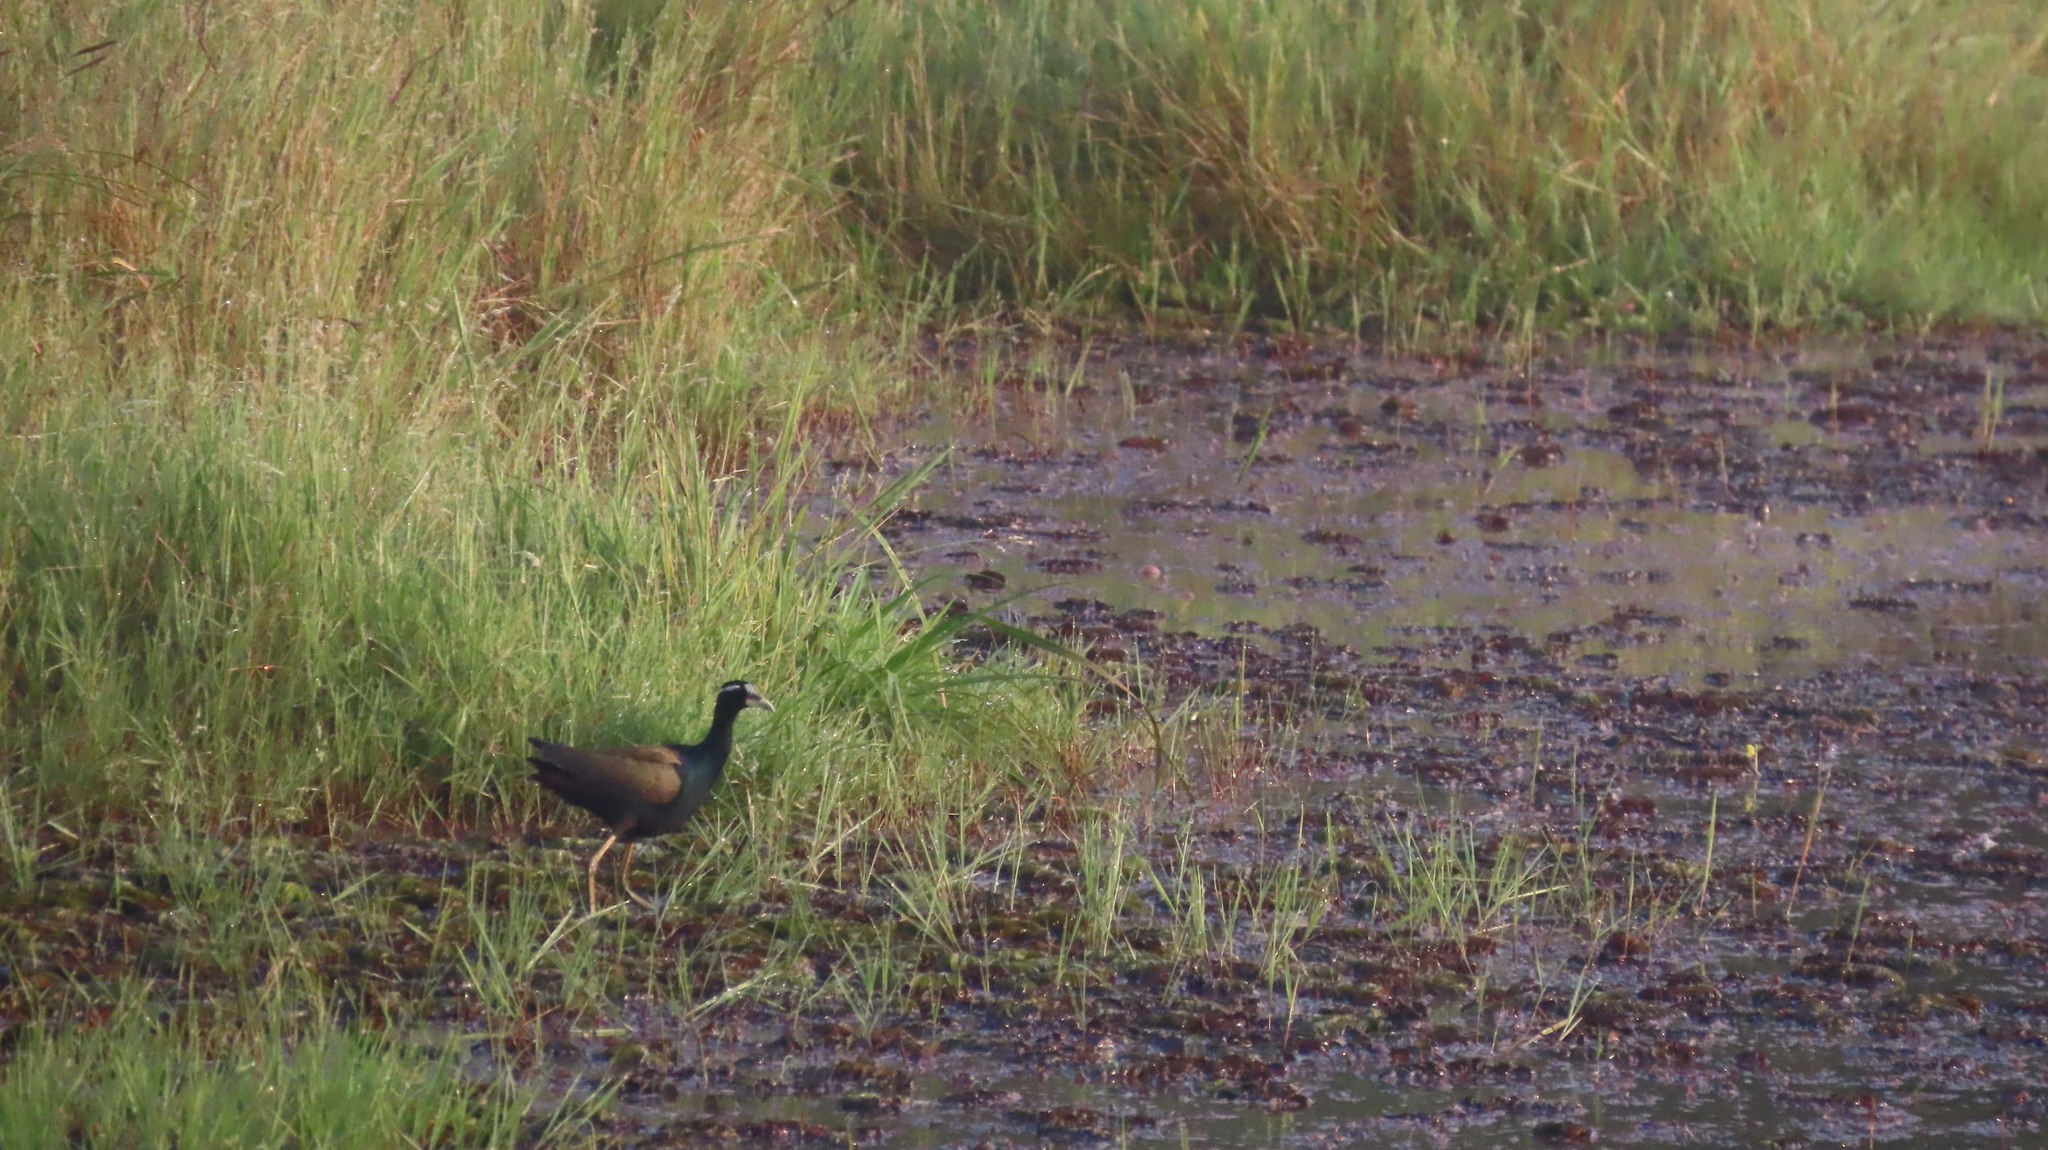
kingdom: Animalia
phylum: Chordata
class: Aves
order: Charadriiformes
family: Jacanidae
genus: Metopidius
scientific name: Metopidius indicus
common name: Bronze-winged jacana
